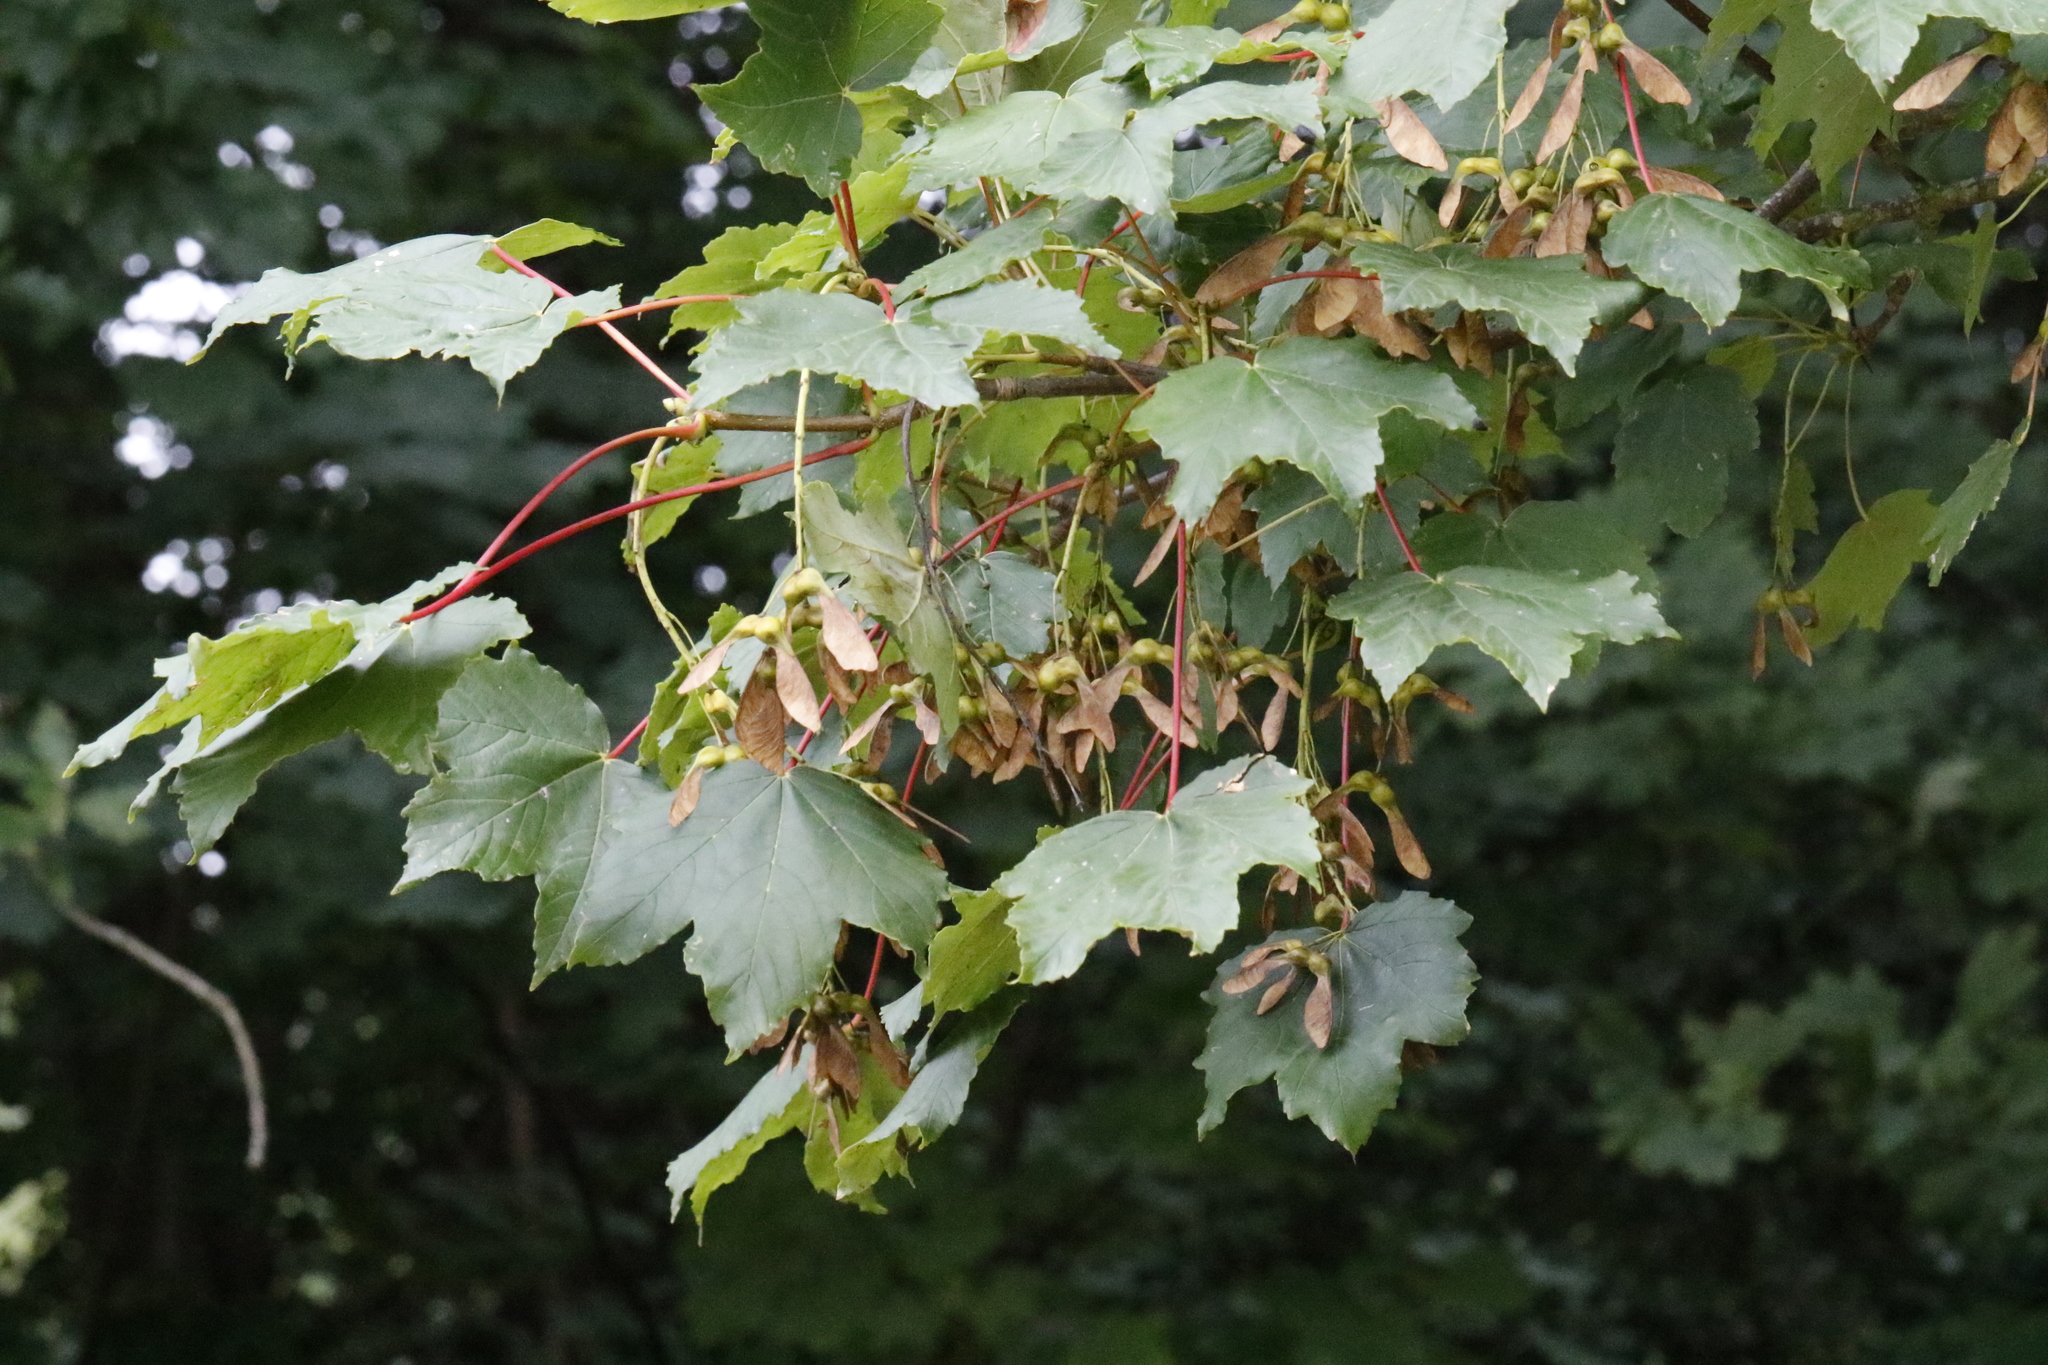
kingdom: Plantae
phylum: Tracheophyta
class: Magnoliopsida
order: Sapindales
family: Sapindaceae
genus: Acer
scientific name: Acer pseudoplatanus
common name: Sycamore
